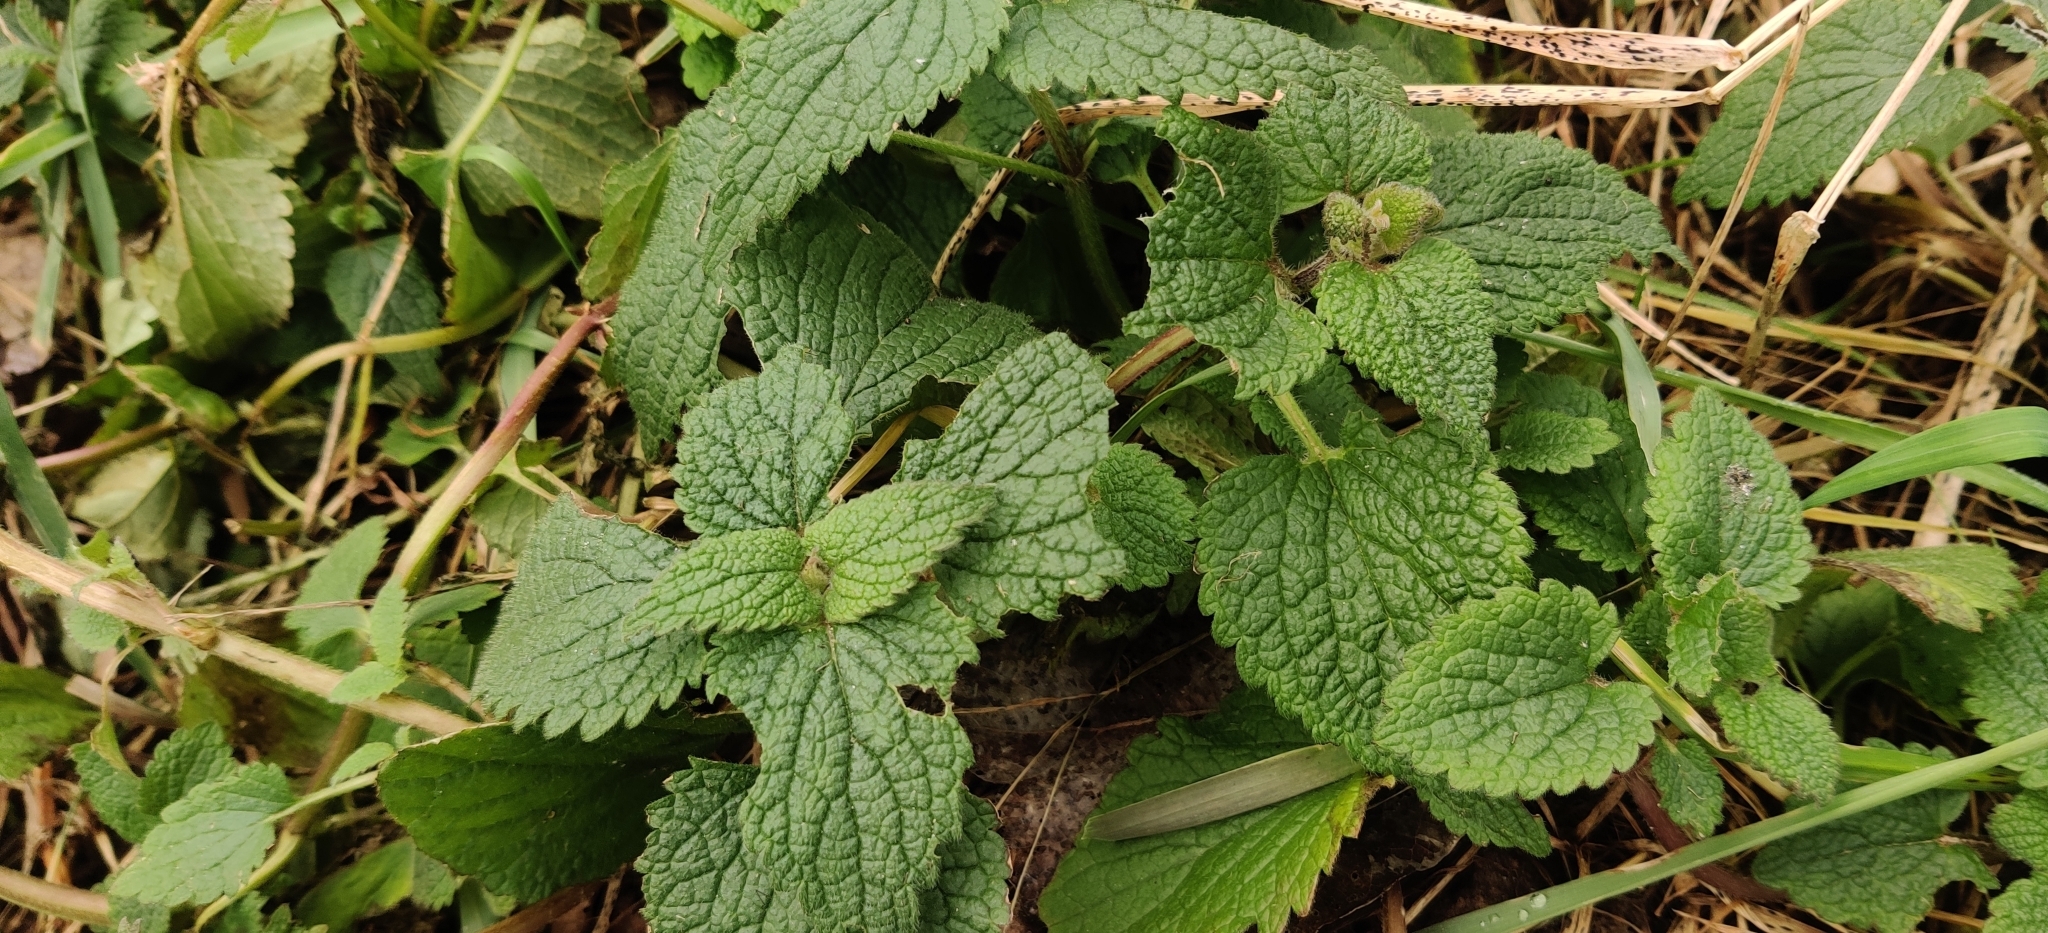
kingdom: Plantae
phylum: Tracheophyta
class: Magnoliopsida
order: Lamiales
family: Lamiaceae
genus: Lamium
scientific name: Lamium album
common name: White dead-nettle
